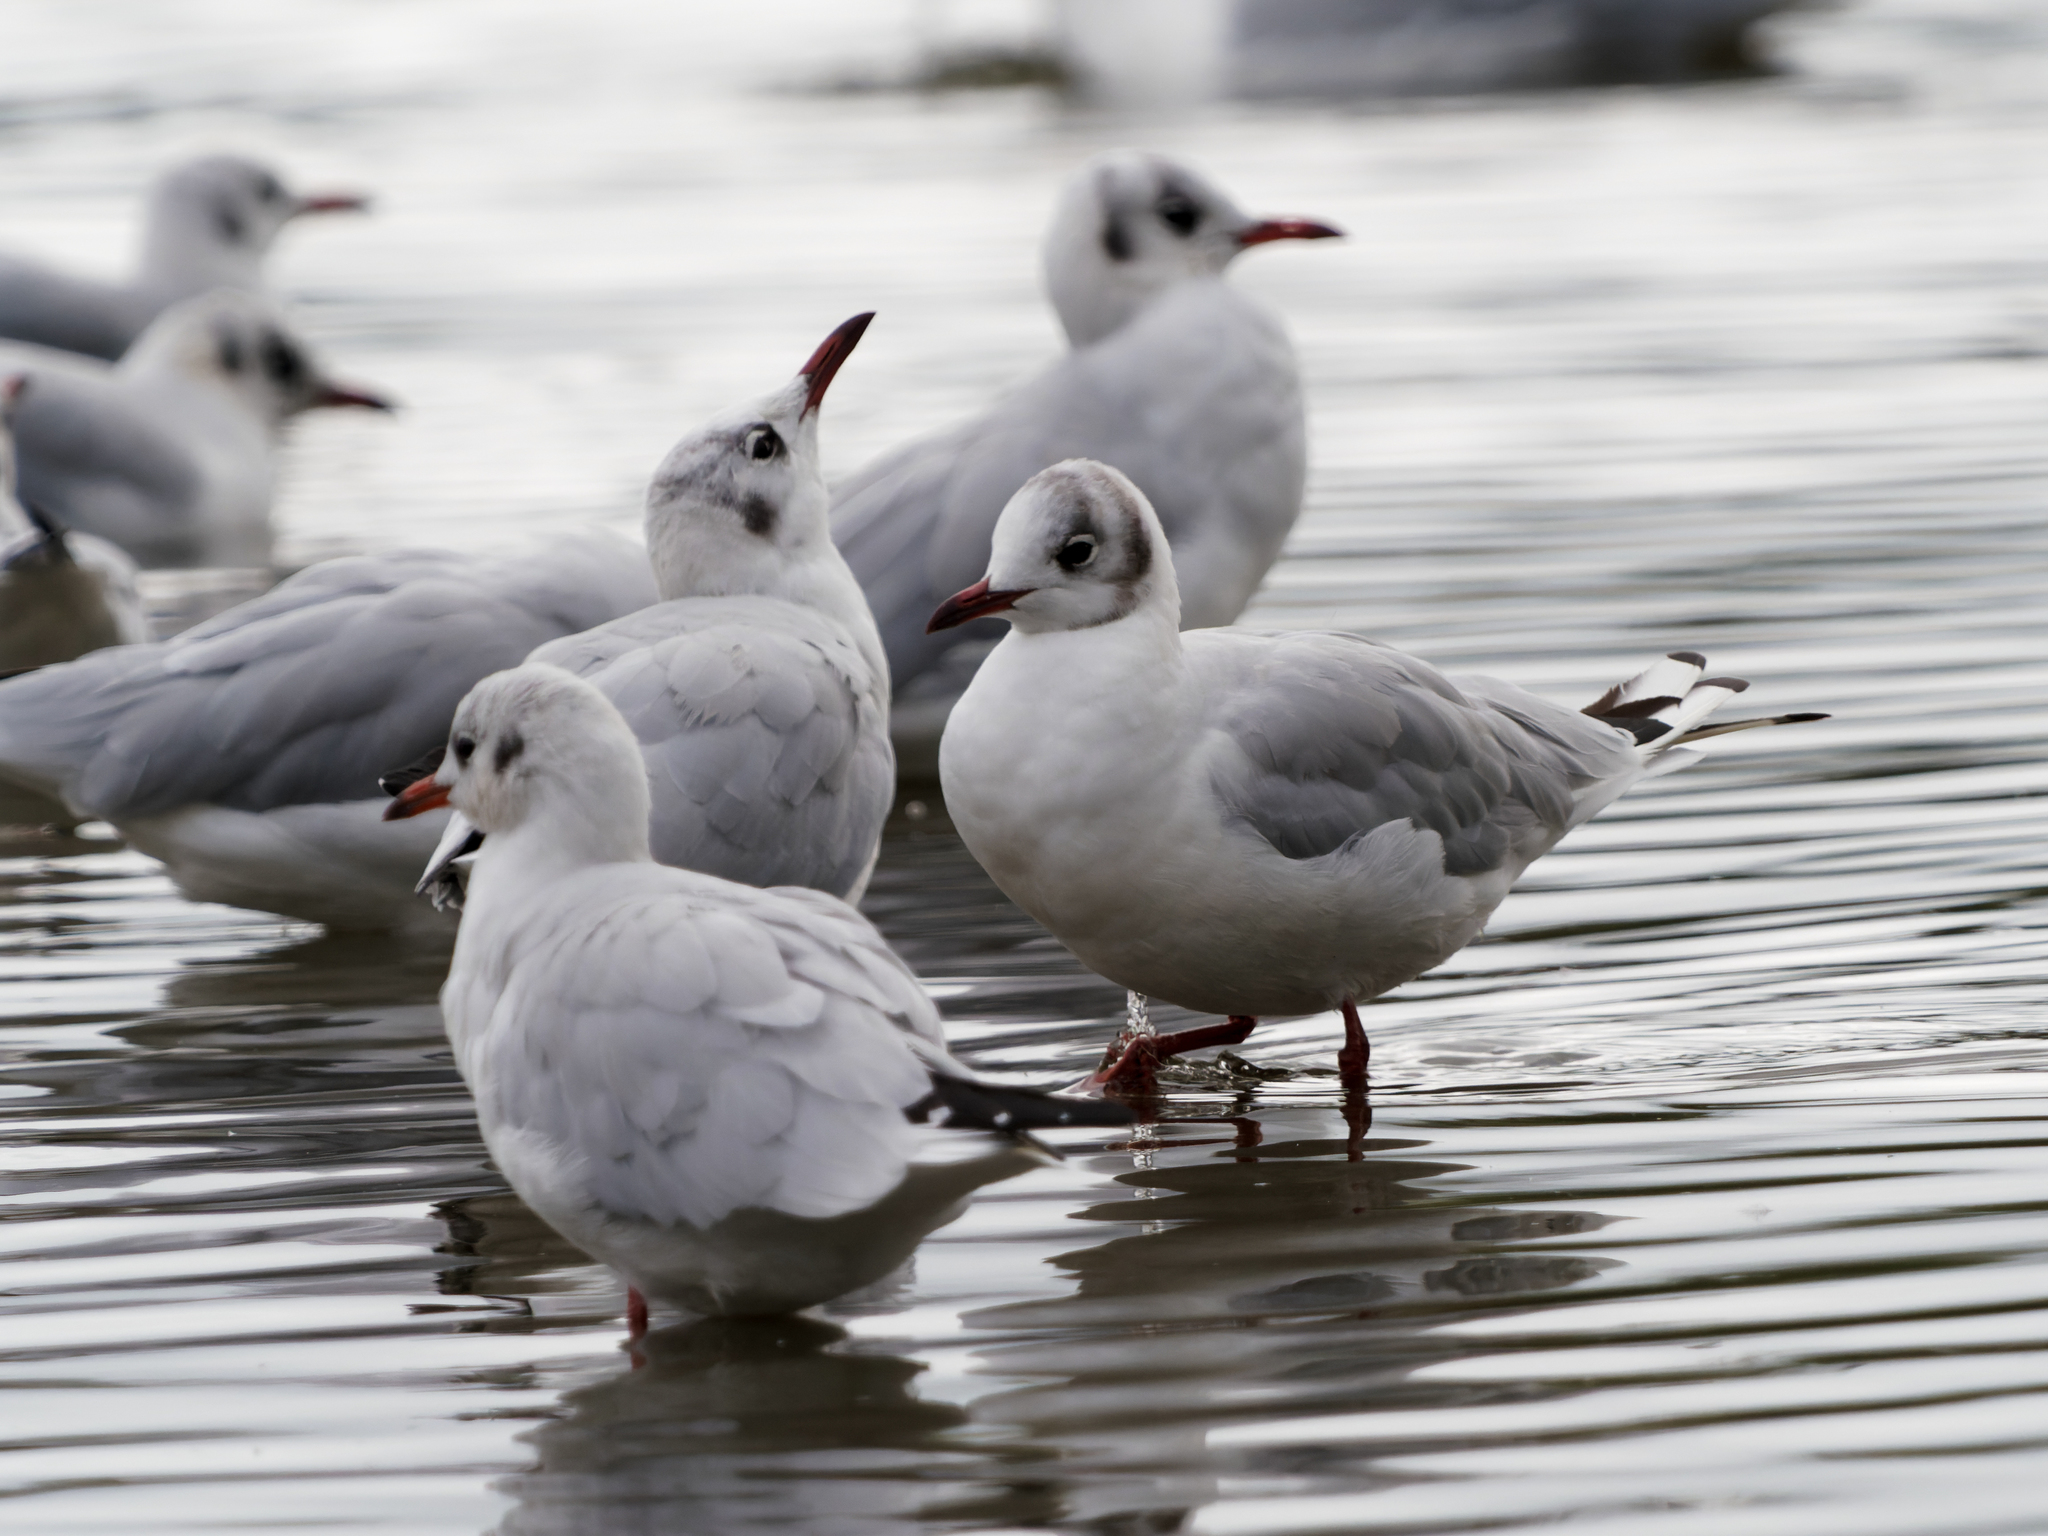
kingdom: Animalia
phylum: Chordata
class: Aves
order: Charadriiformes
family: Laridae
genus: Chroicocephalus
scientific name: Chroicocephalus ridibundus
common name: Black-headed gull
